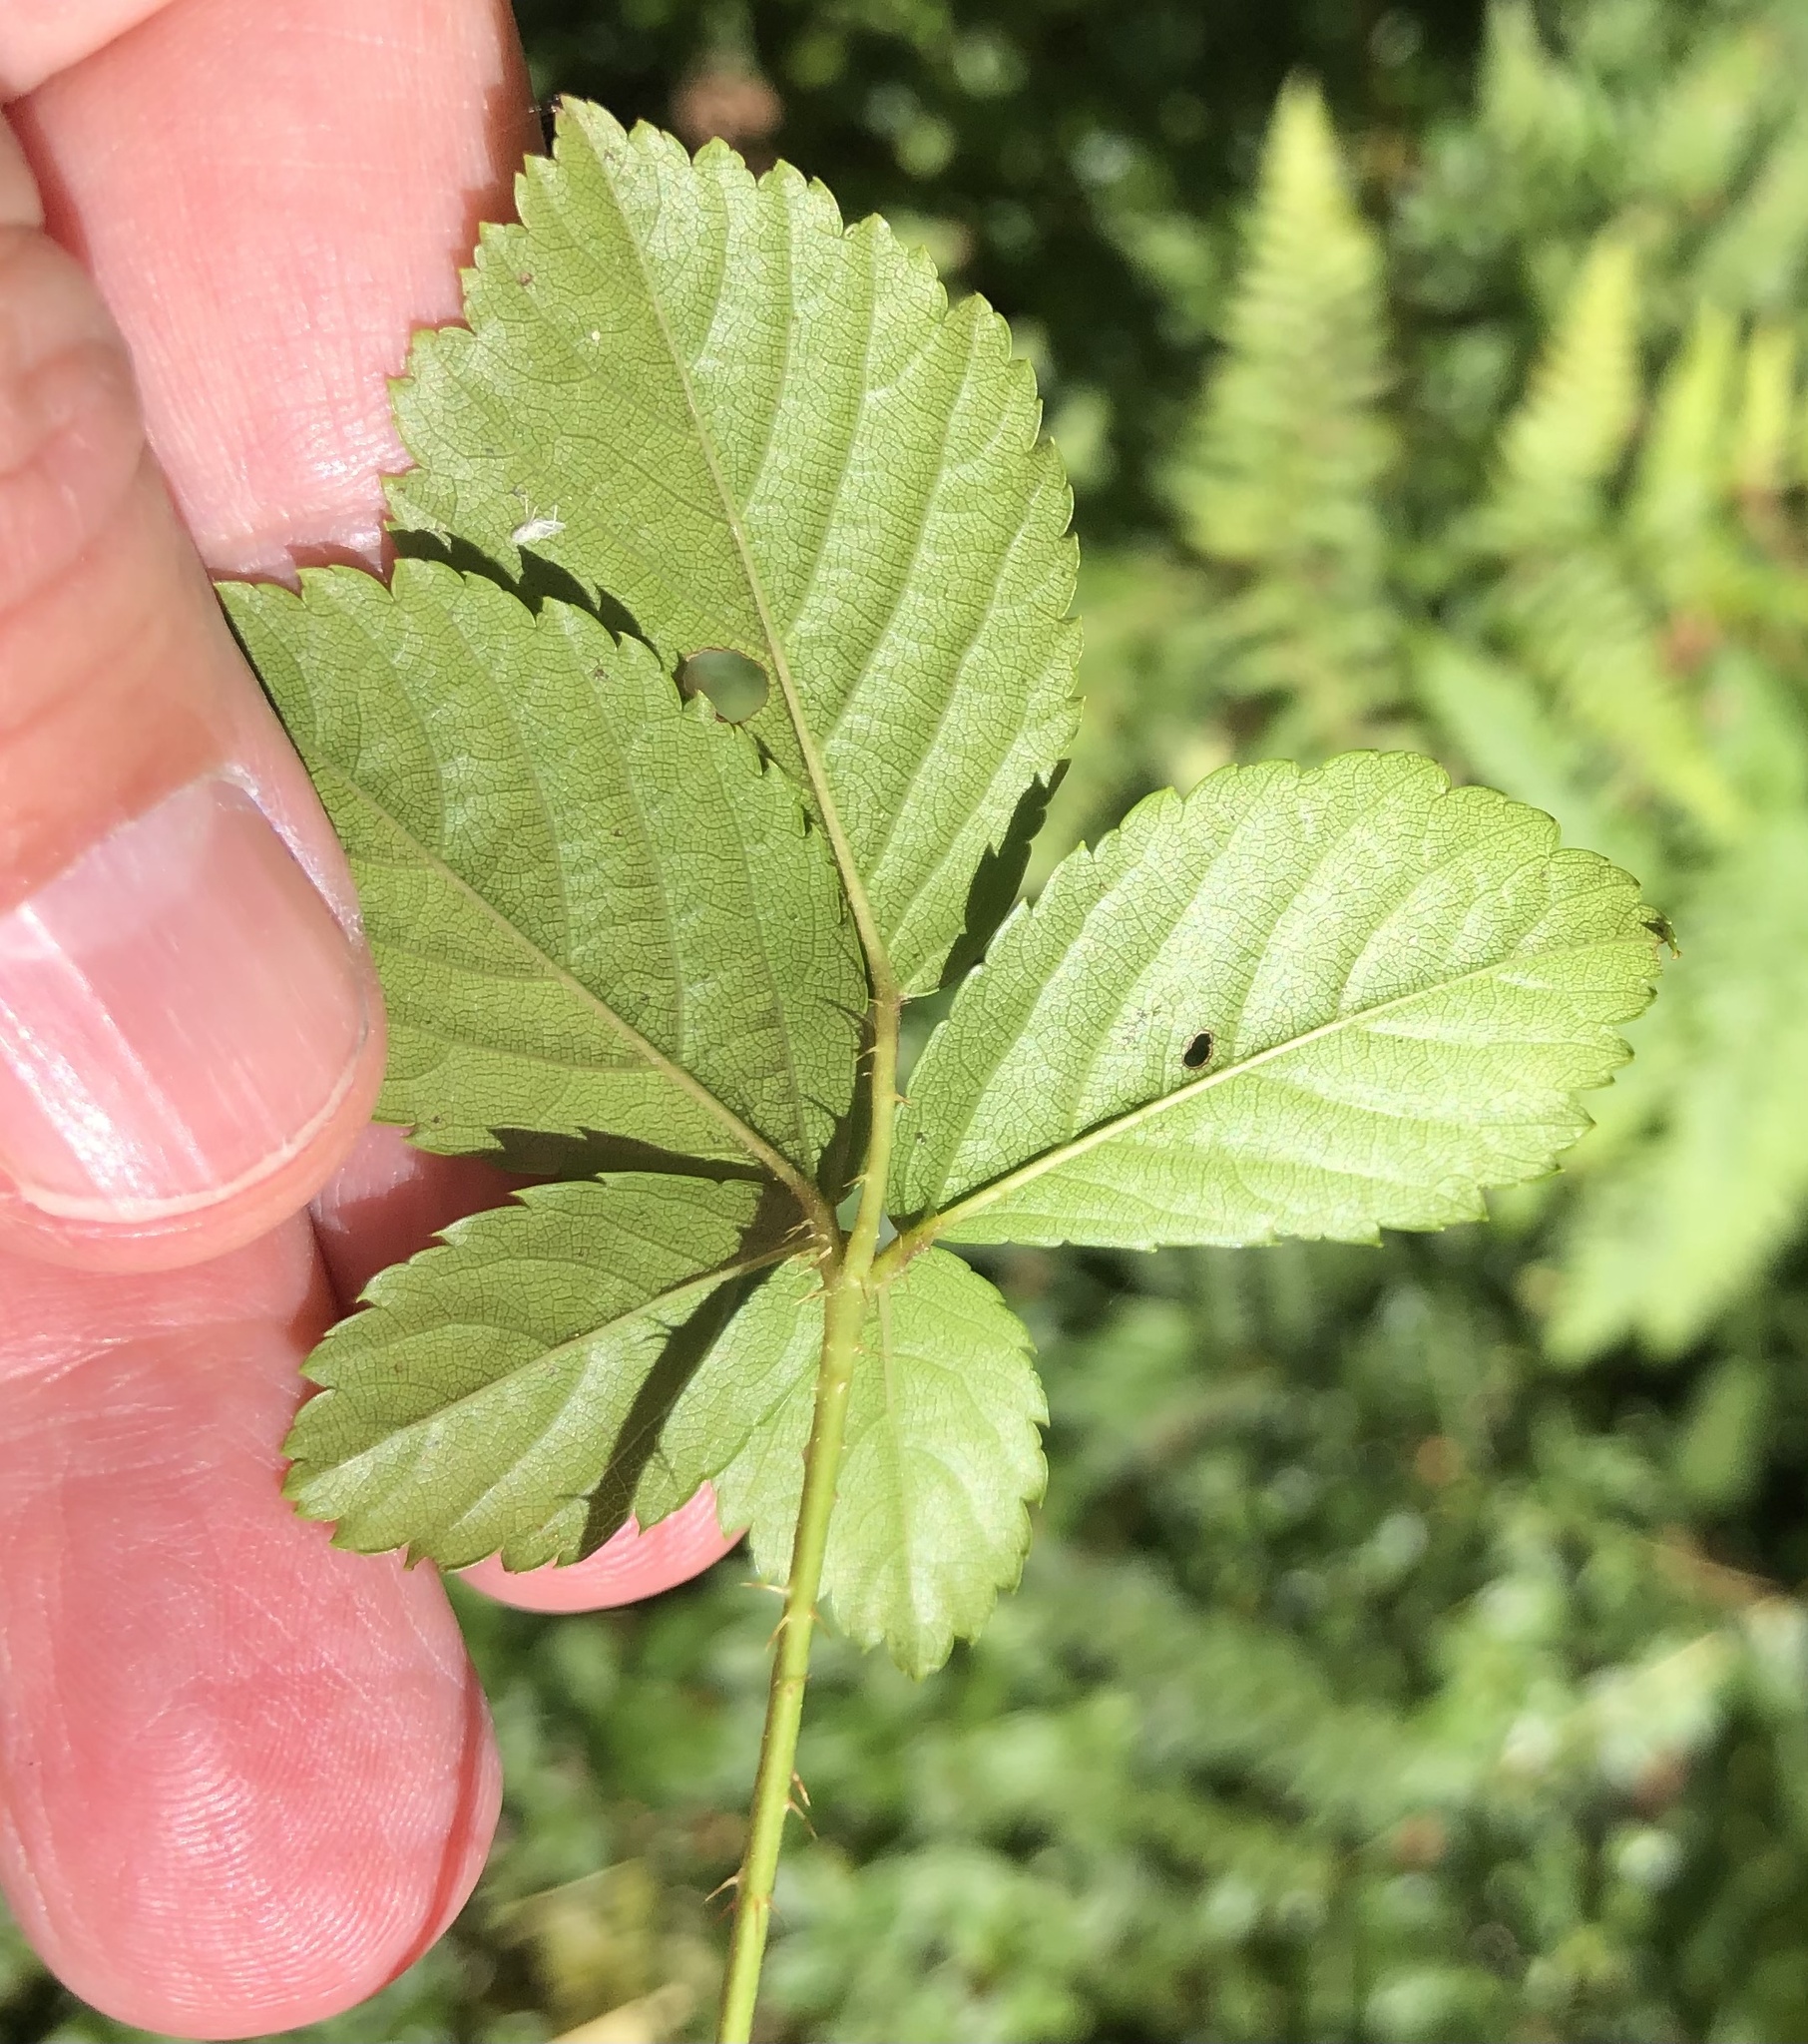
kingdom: Plantae
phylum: Tracheophyta
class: Magnoliopsida
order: Rosales
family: Rosaceae
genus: Rubus
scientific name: Rubus hispidus
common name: Running blackberry
